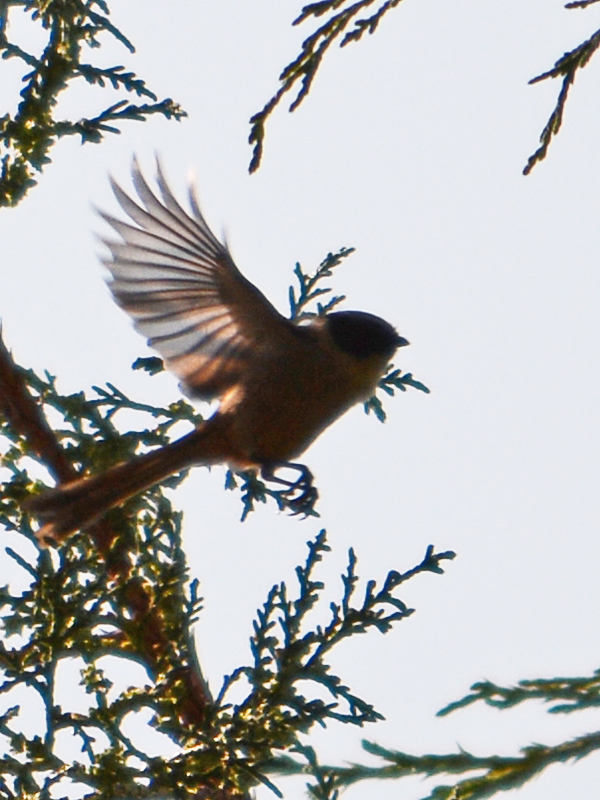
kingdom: Animalia
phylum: Chordata
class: Aves
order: Passeriformes
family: Aegithalidae
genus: Psaltriparus
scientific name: Psaltriparus minimus
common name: American bushtit
